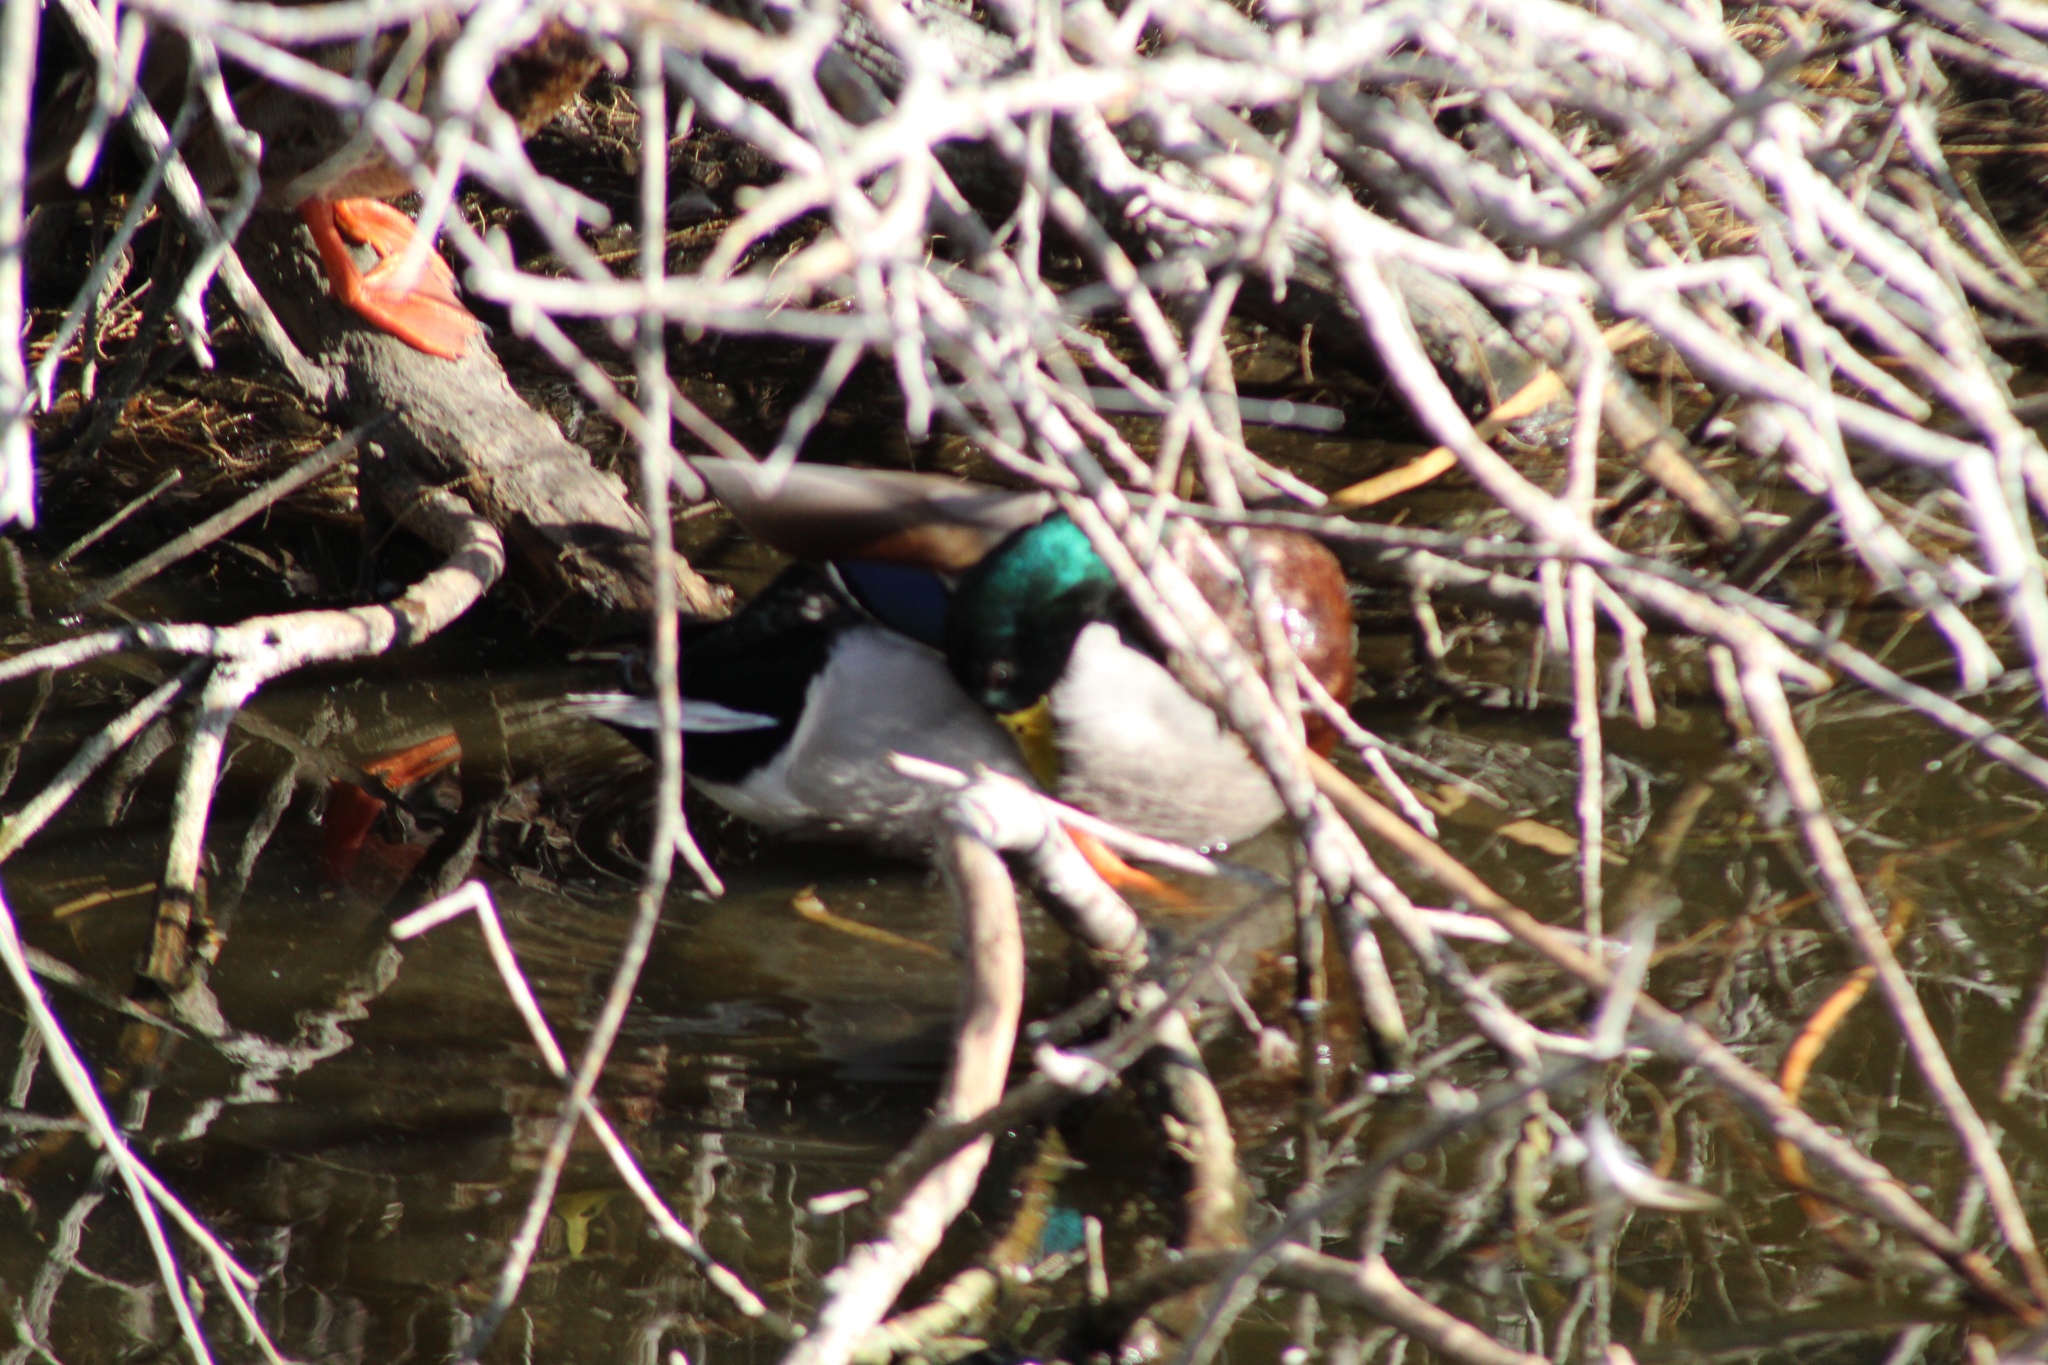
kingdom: Animalia
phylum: Chordata
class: Aves
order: Anseriformes
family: Anatidae
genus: Anas
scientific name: Anas platyrhynchos
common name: Mallard
